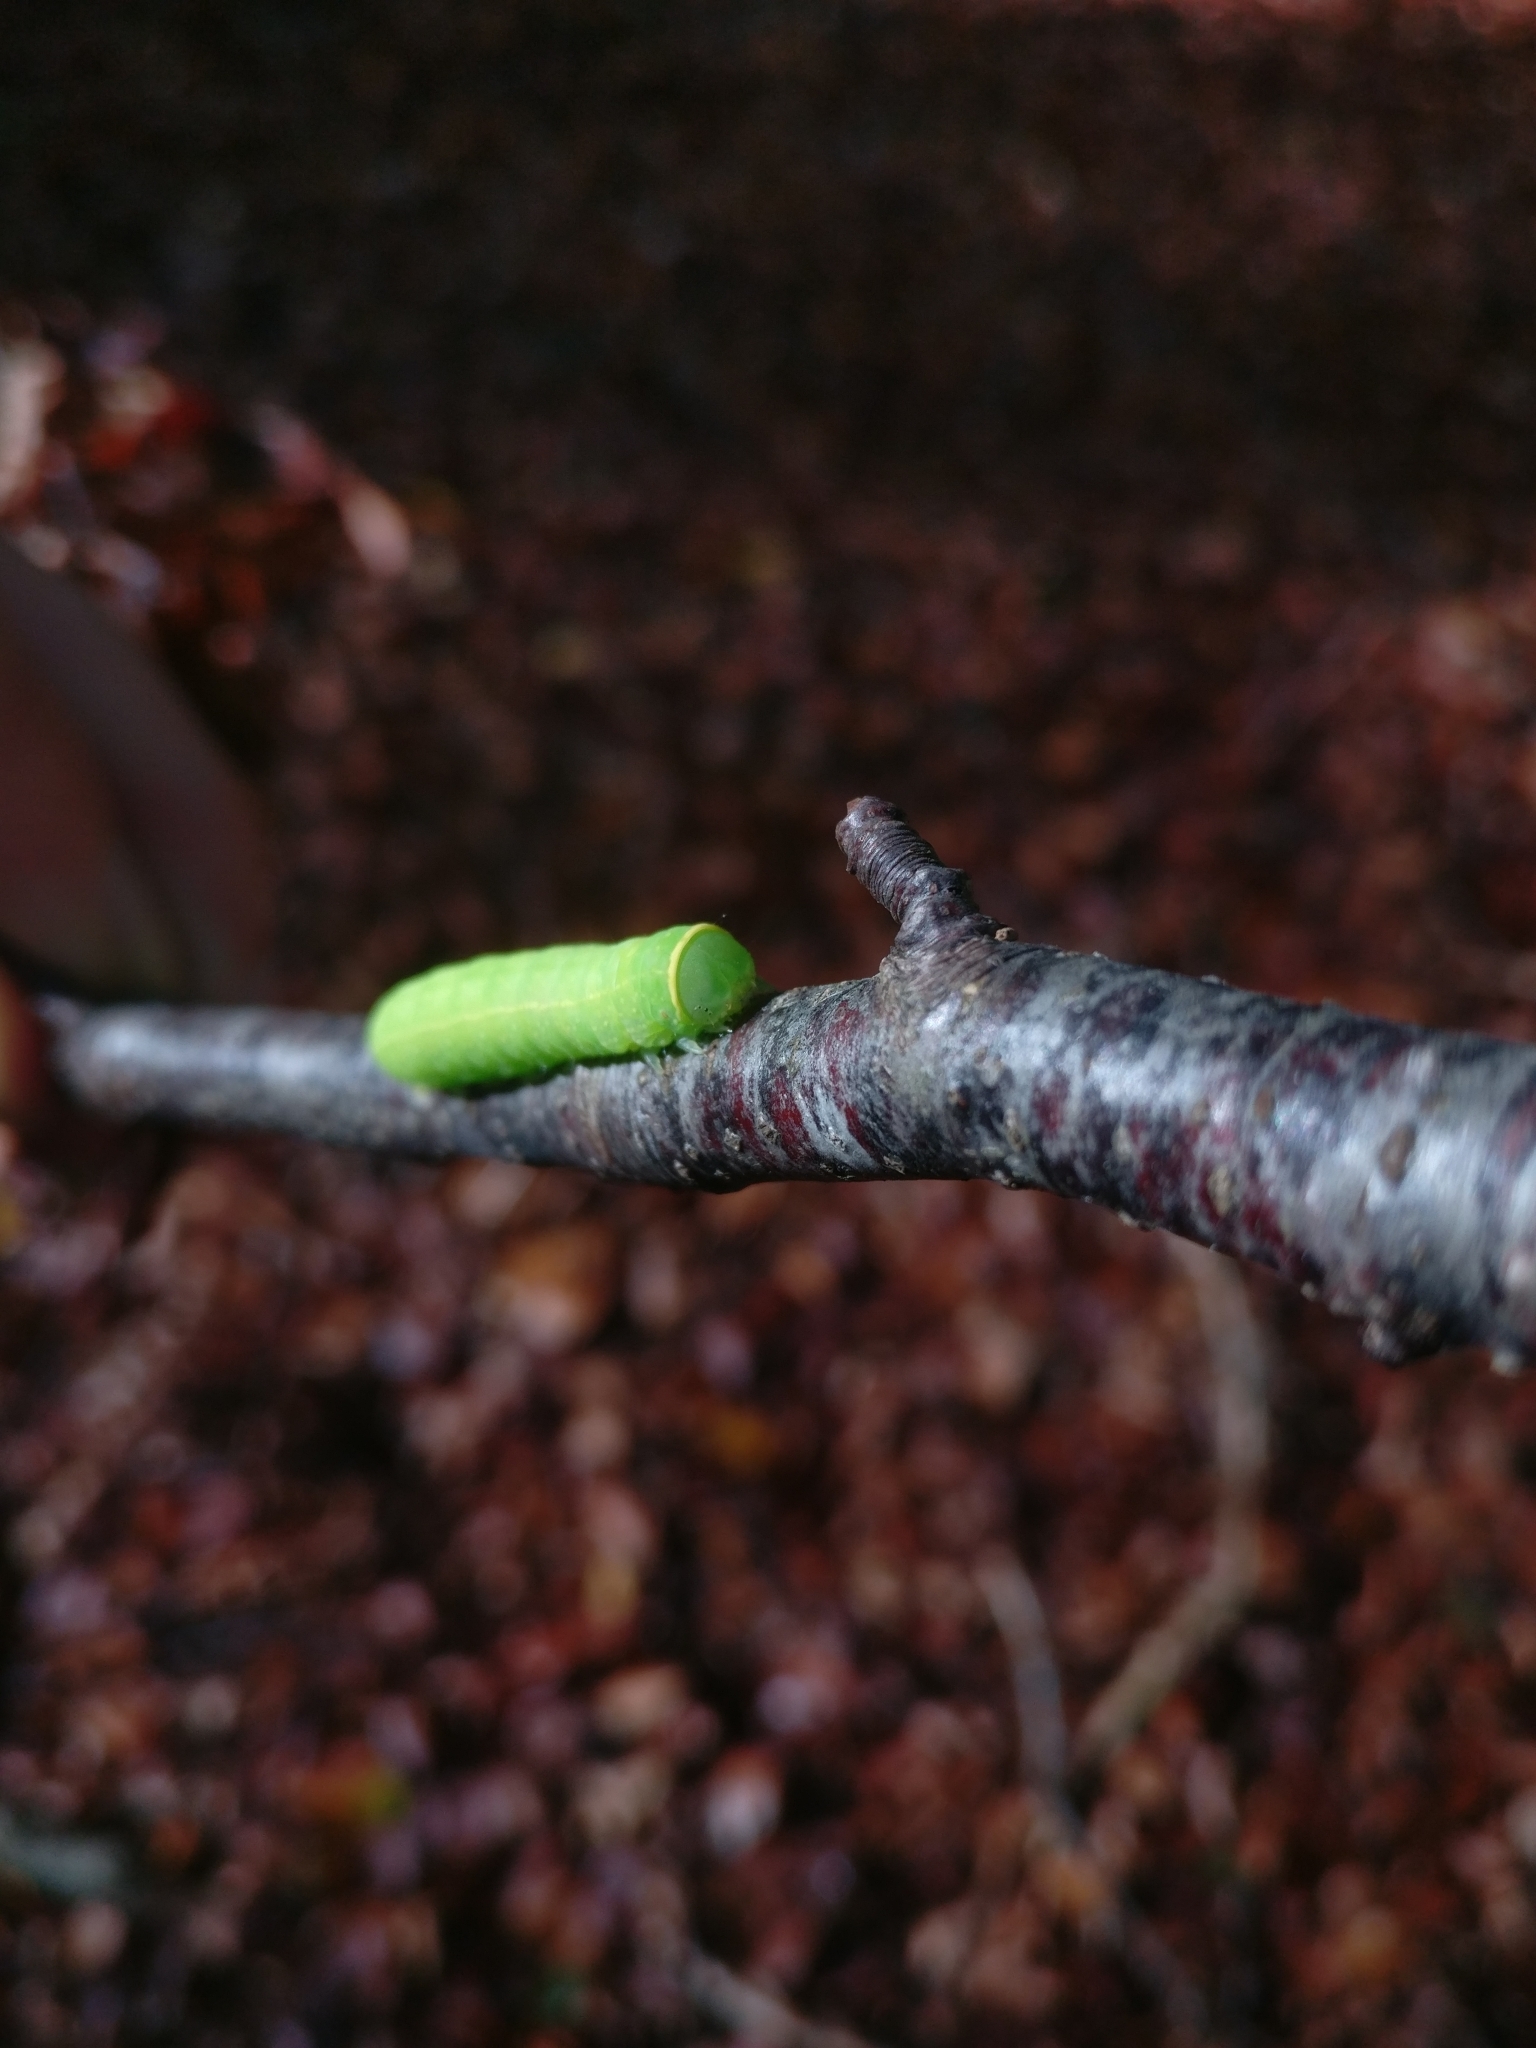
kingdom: Animalia
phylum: Arthropoda
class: Insecta
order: Lepidoptera
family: Nolidae
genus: Pseudoips
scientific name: Pseudoips prasinana
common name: Green silver-lines
